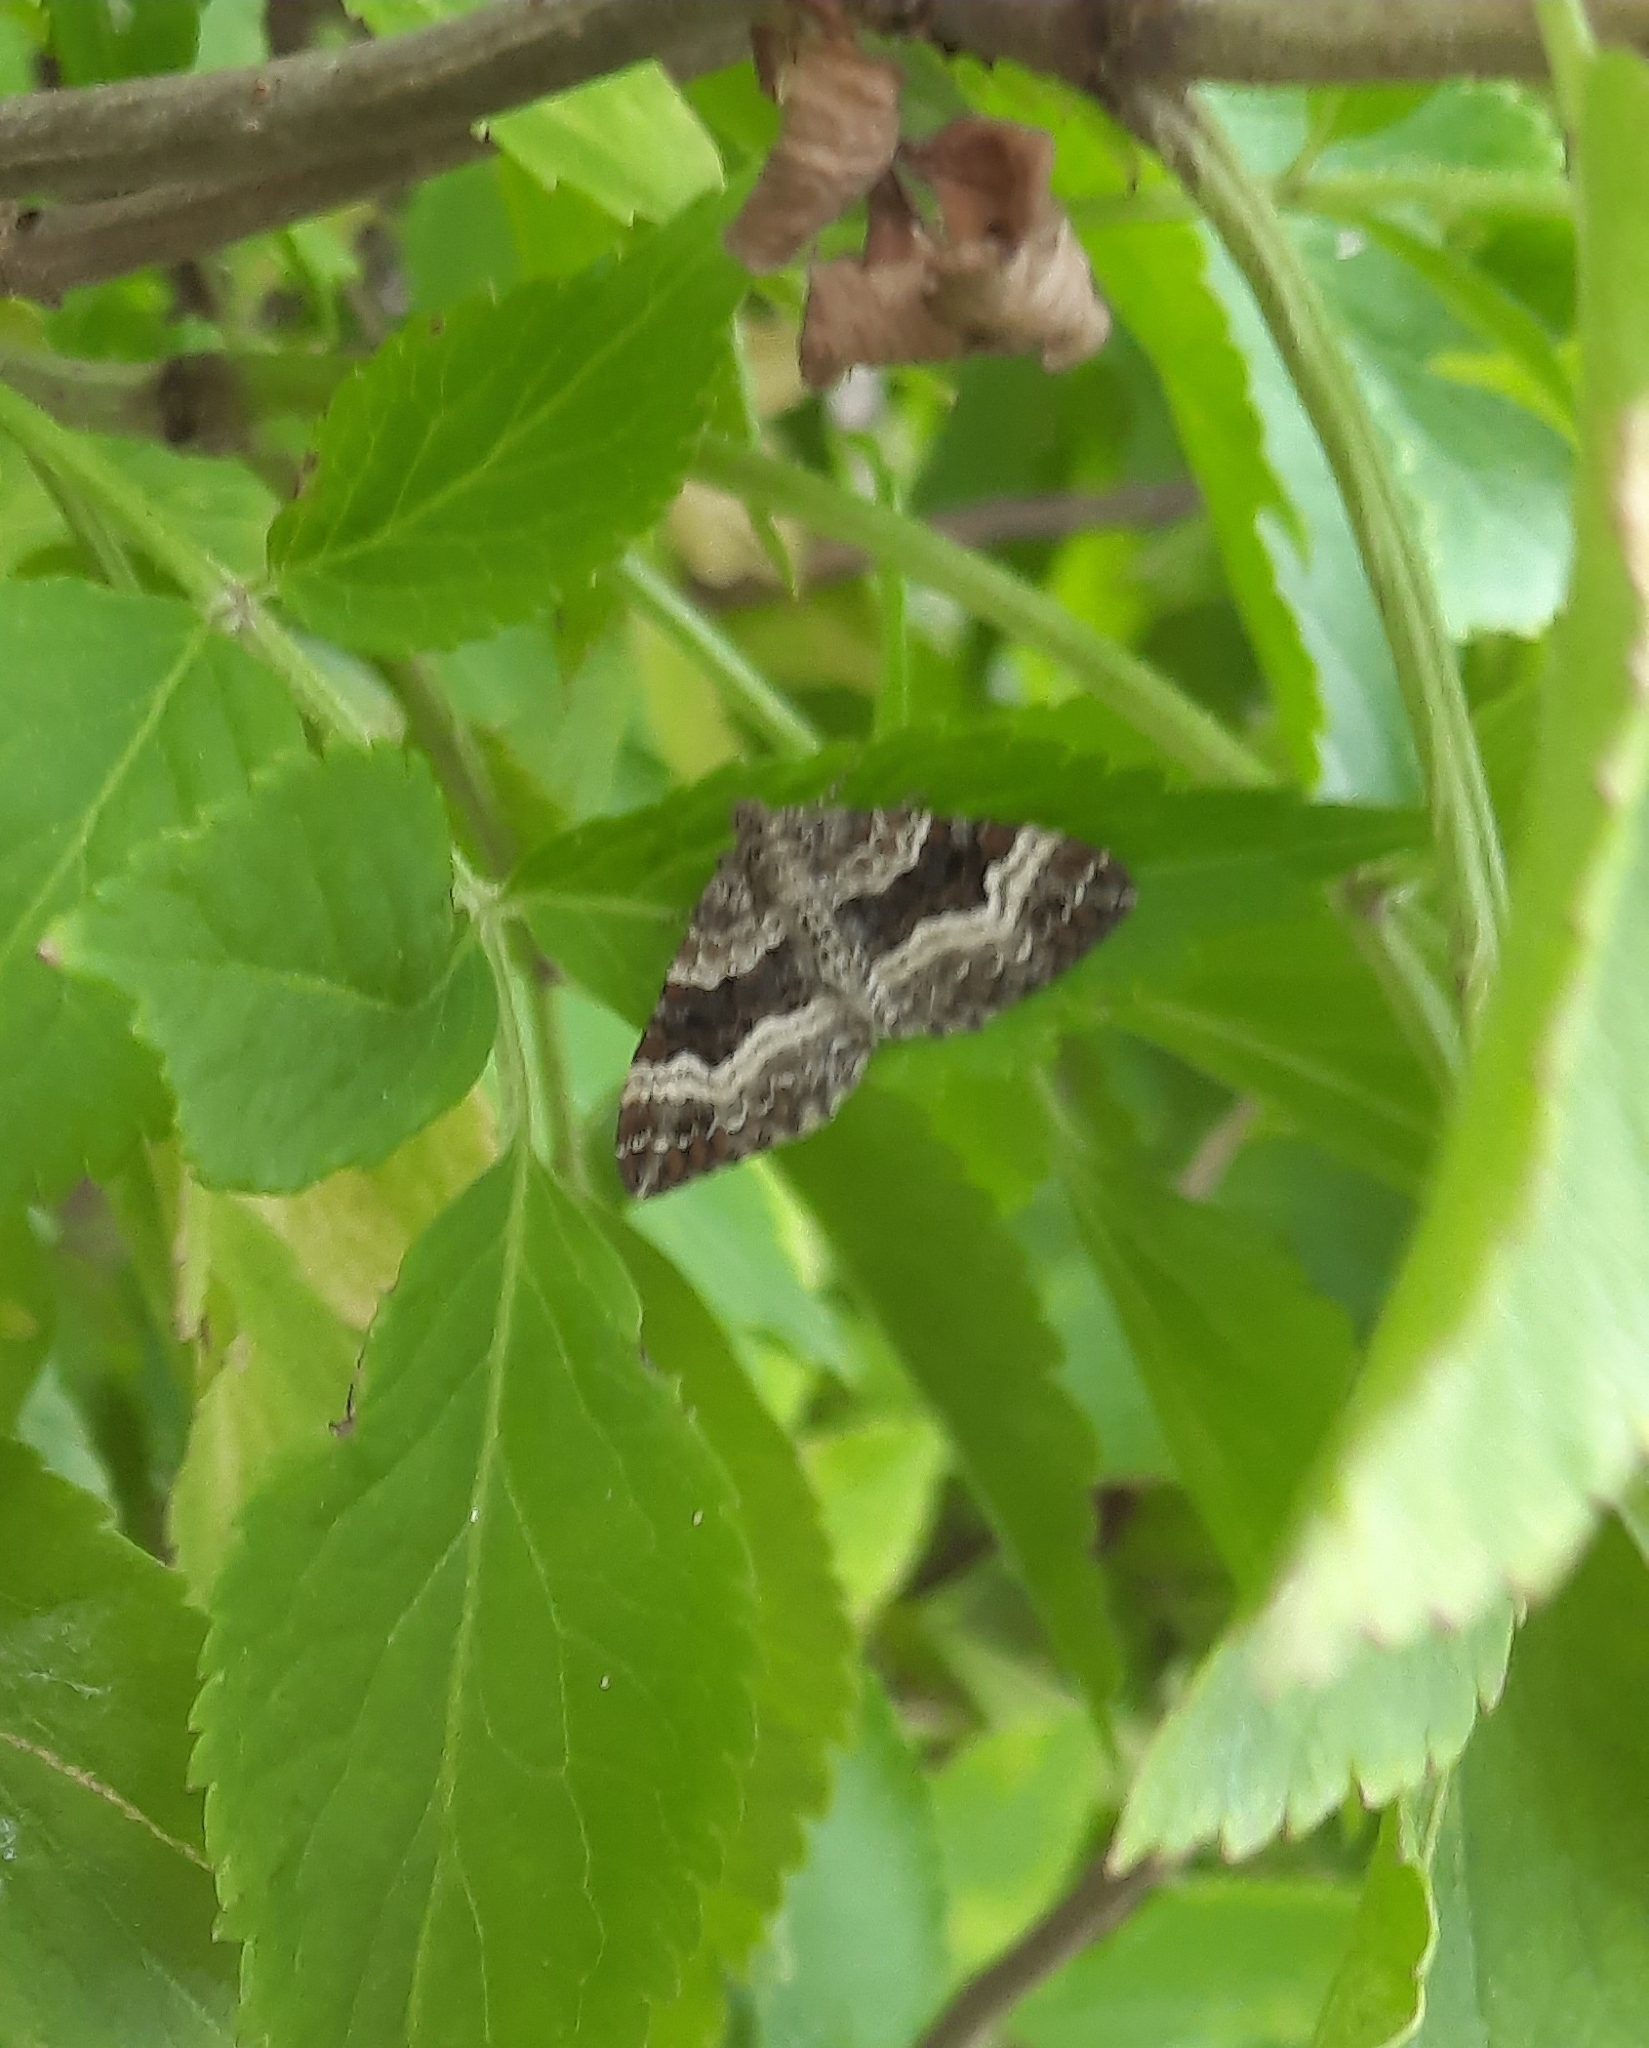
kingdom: Animalia
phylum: Arthropoda
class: Insecta
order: Lepidoptera
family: Geometridae
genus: Epirrhoe
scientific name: Epirrhoe alternata
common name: Common carpet
